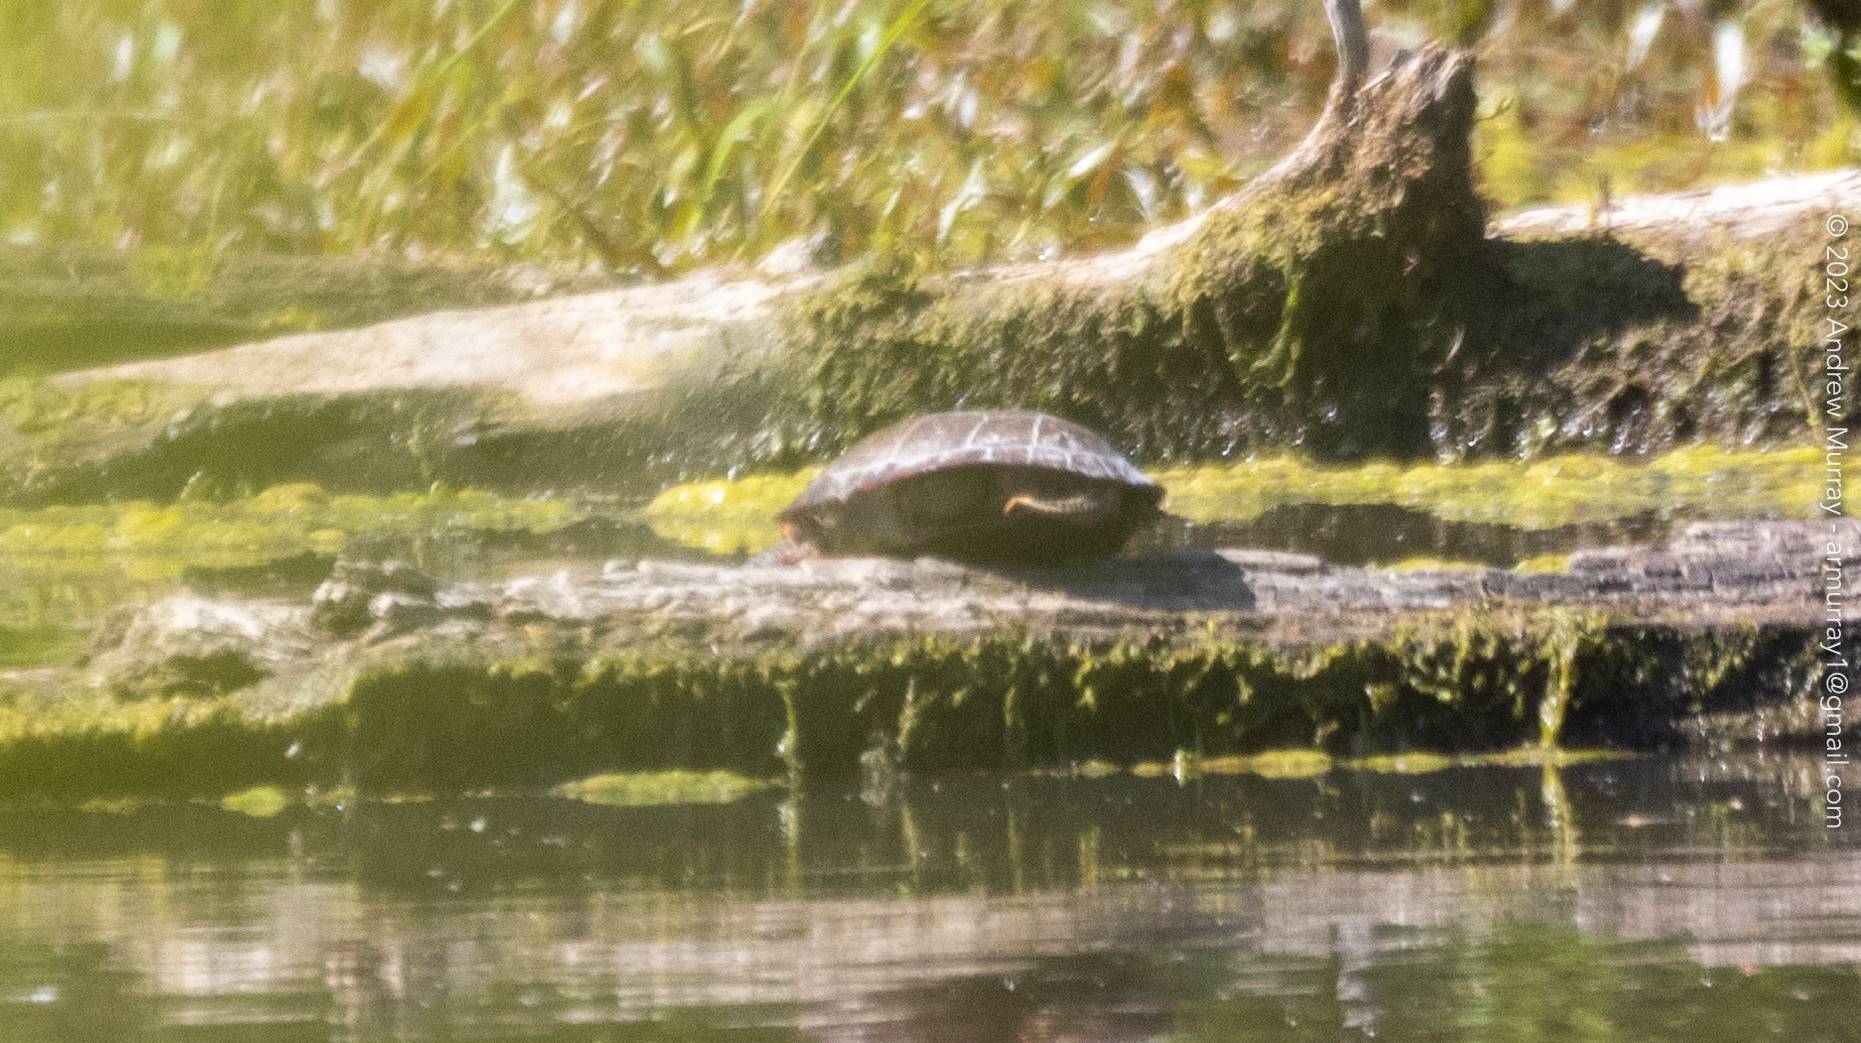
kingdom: Animalia
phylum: Chordata
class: Testudines
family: Emydidae
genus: Chrysemys
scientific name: Chrysemys picta
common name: Painted turtle
